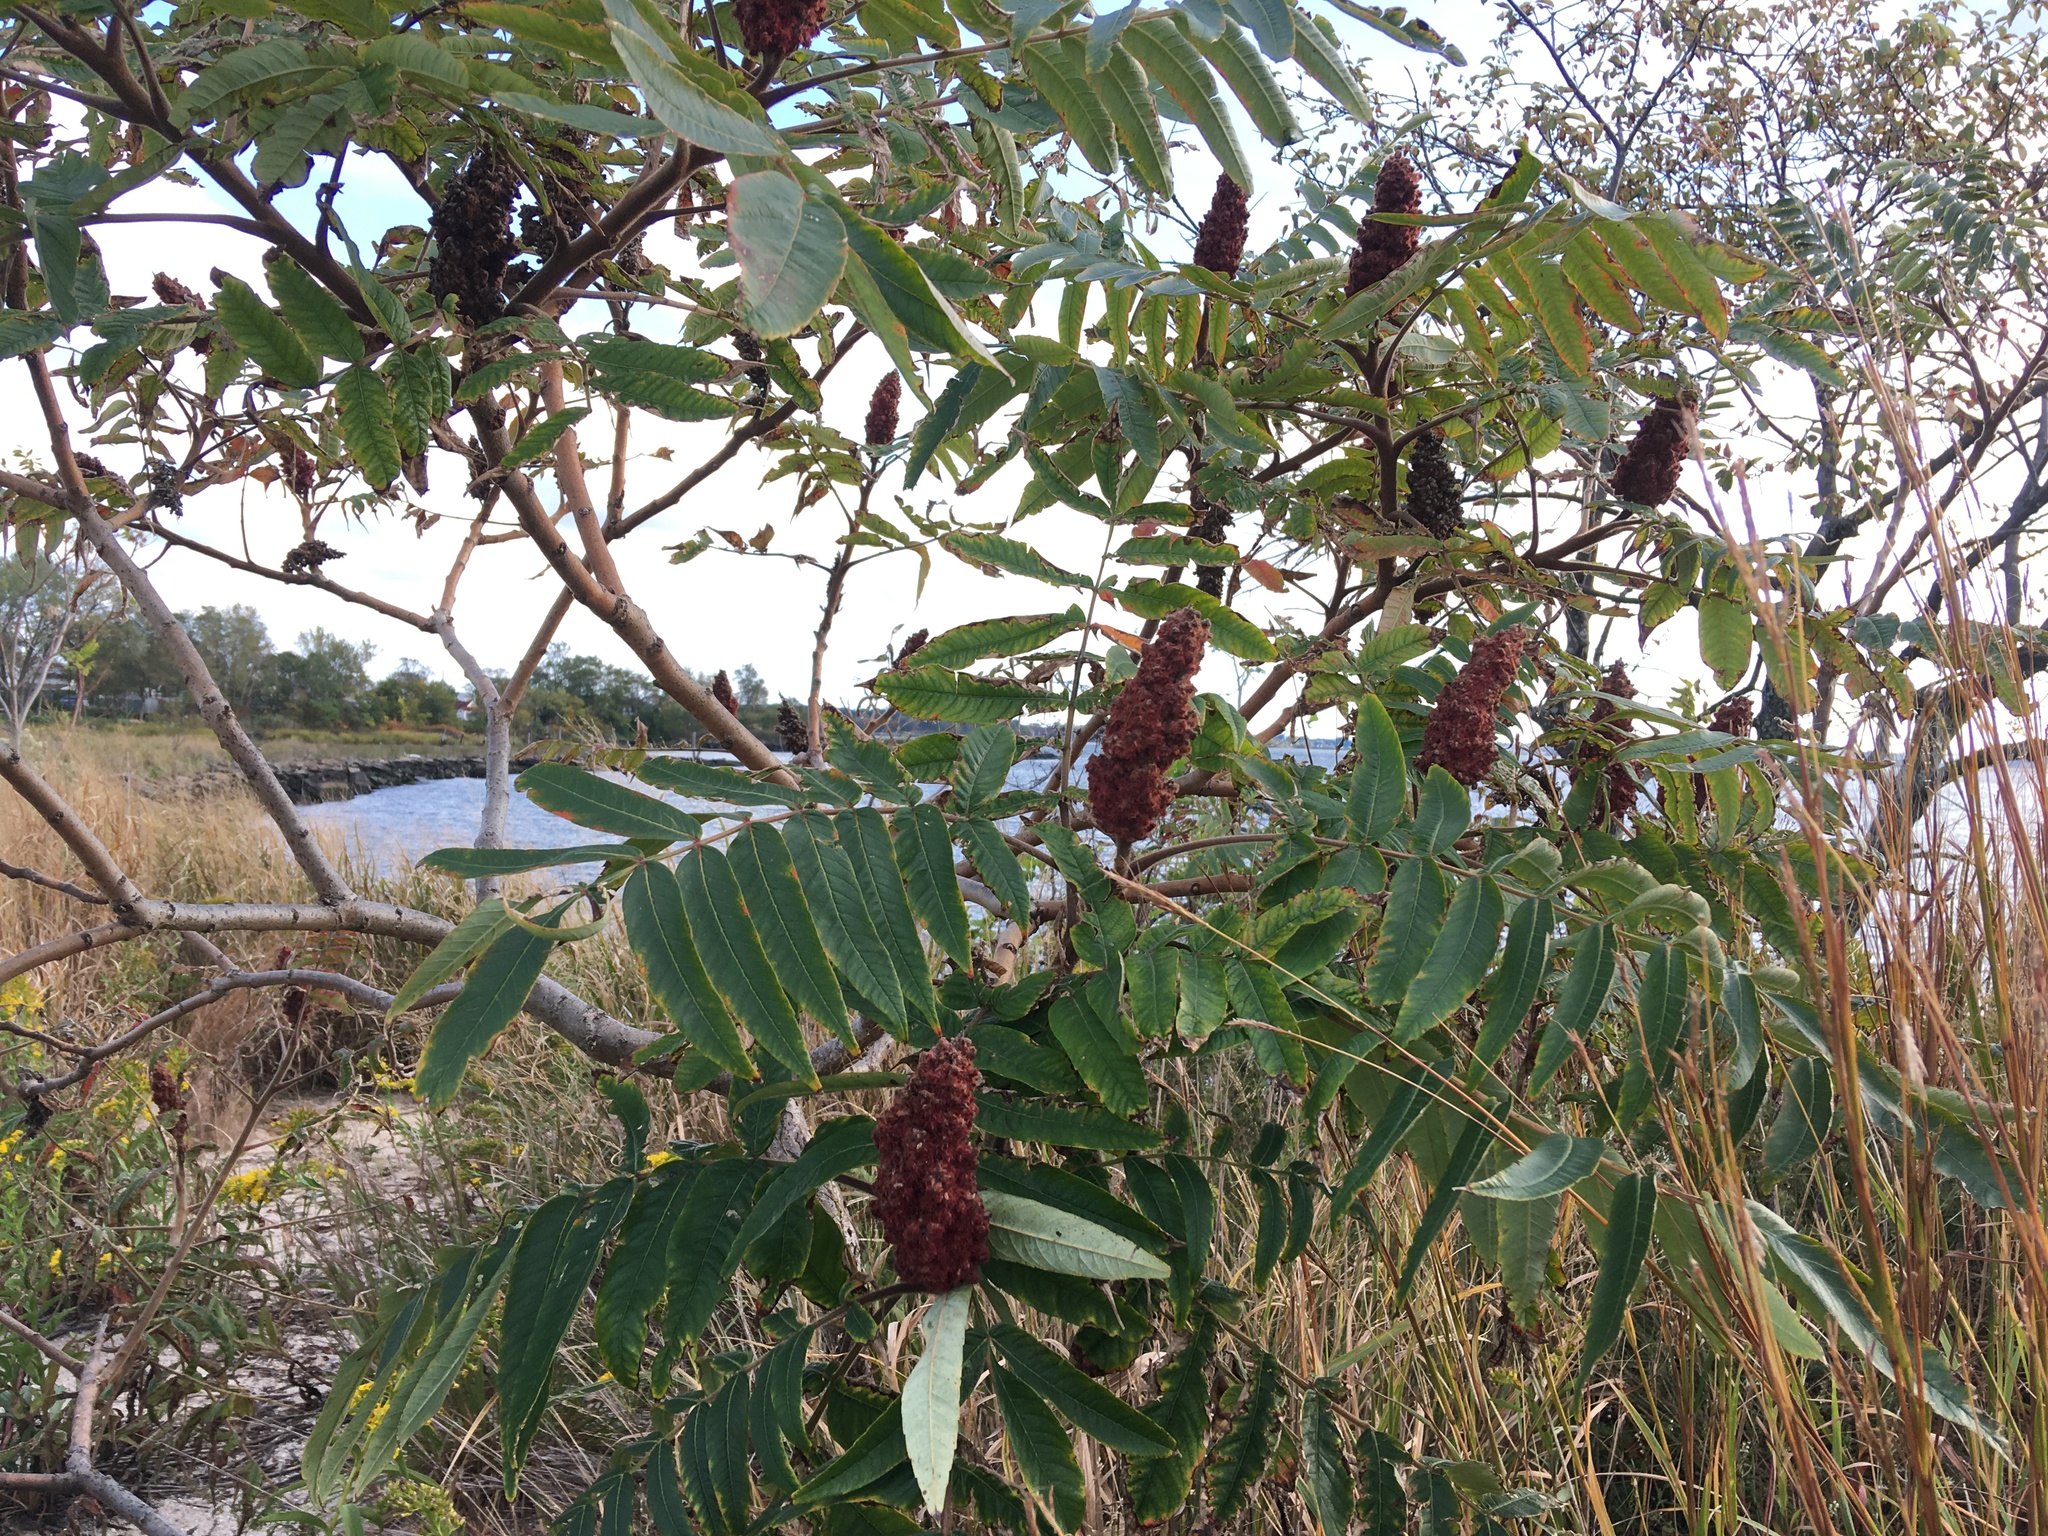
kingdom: Plantae
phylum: Tracheophyta
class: Magnoliopsida
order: Sapindales
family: Anacardiaceae
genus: Rhus
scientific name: Rhus typhina
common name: Staghorn sumac
